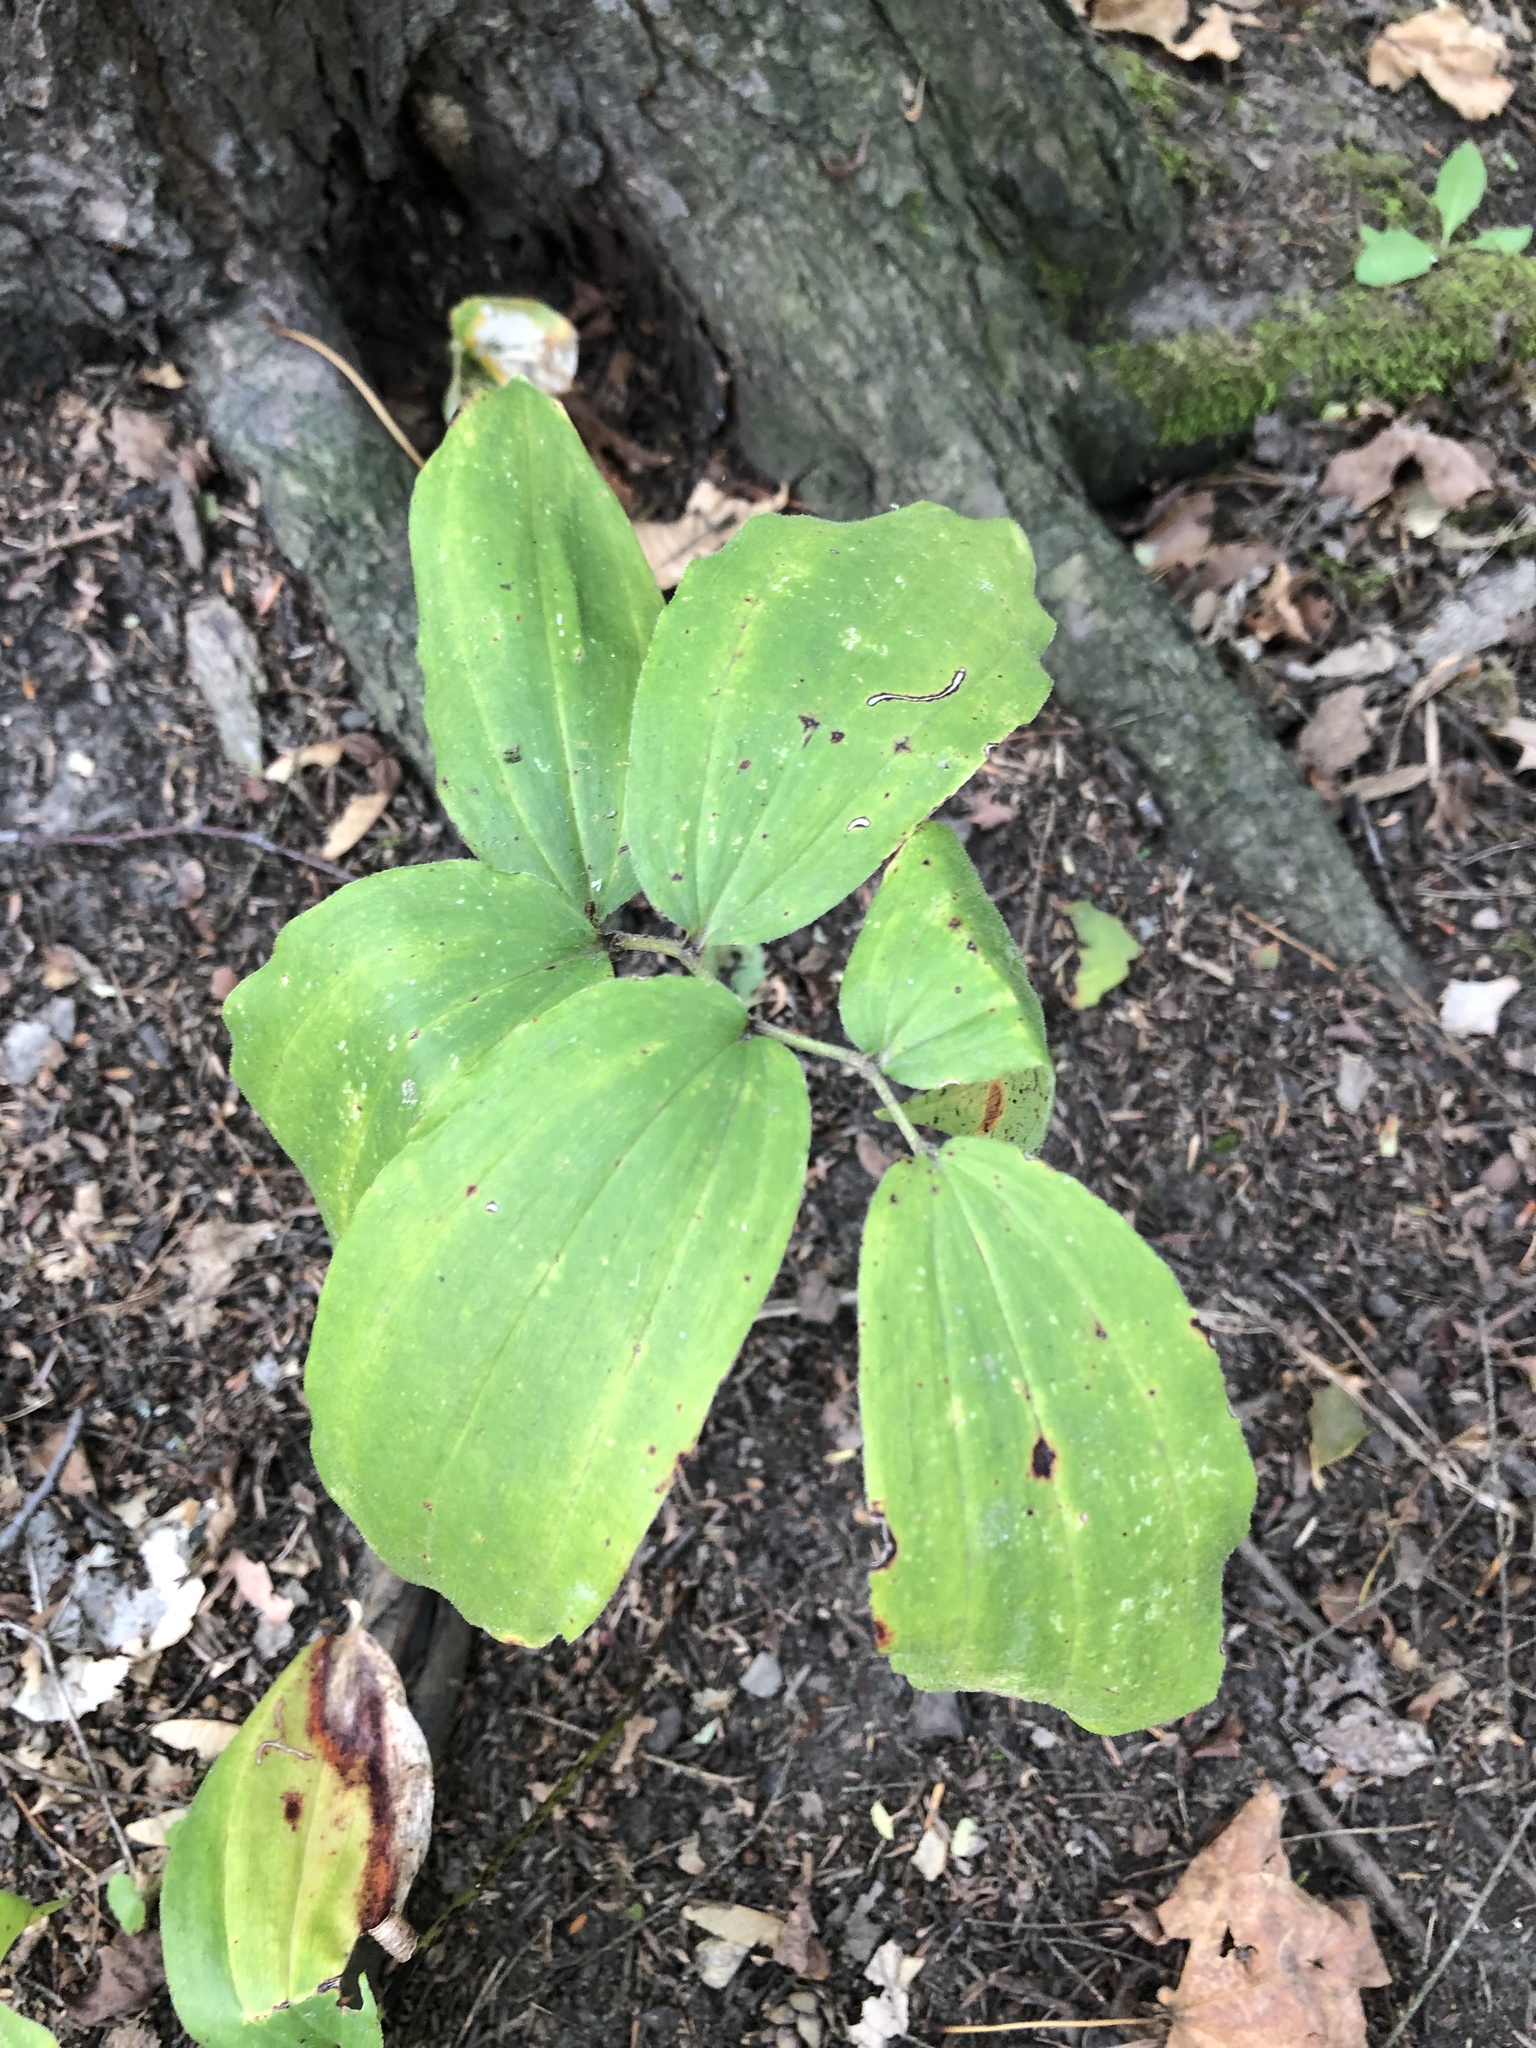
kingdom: Plantae
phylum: Tracheophyta
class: Liliopsida
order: Asparagales
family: Asparagaceae
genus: Maianthemum
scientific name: Maianthemum racemosum
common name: False spikenard
